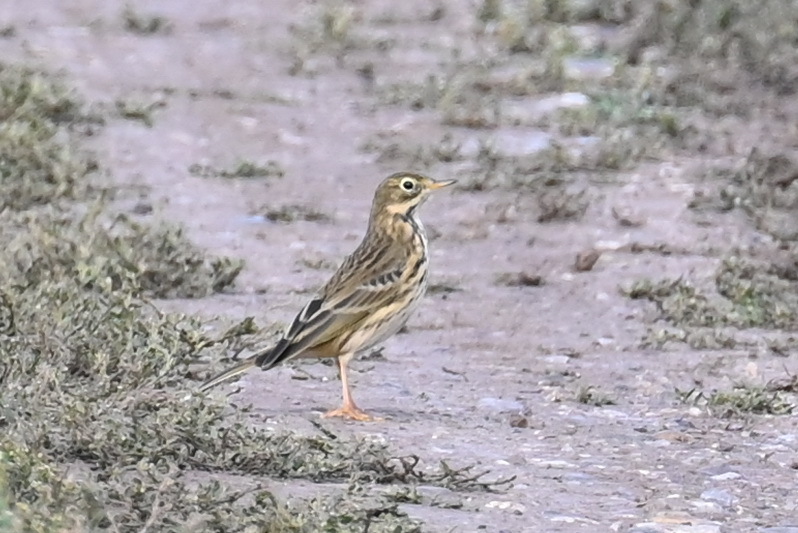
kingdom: Animalia
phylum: Chordata
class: Aves
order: Passeriformes
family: Motacillidae
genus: Anthus
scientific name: Anthus pratensis
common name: Meadow pipit
